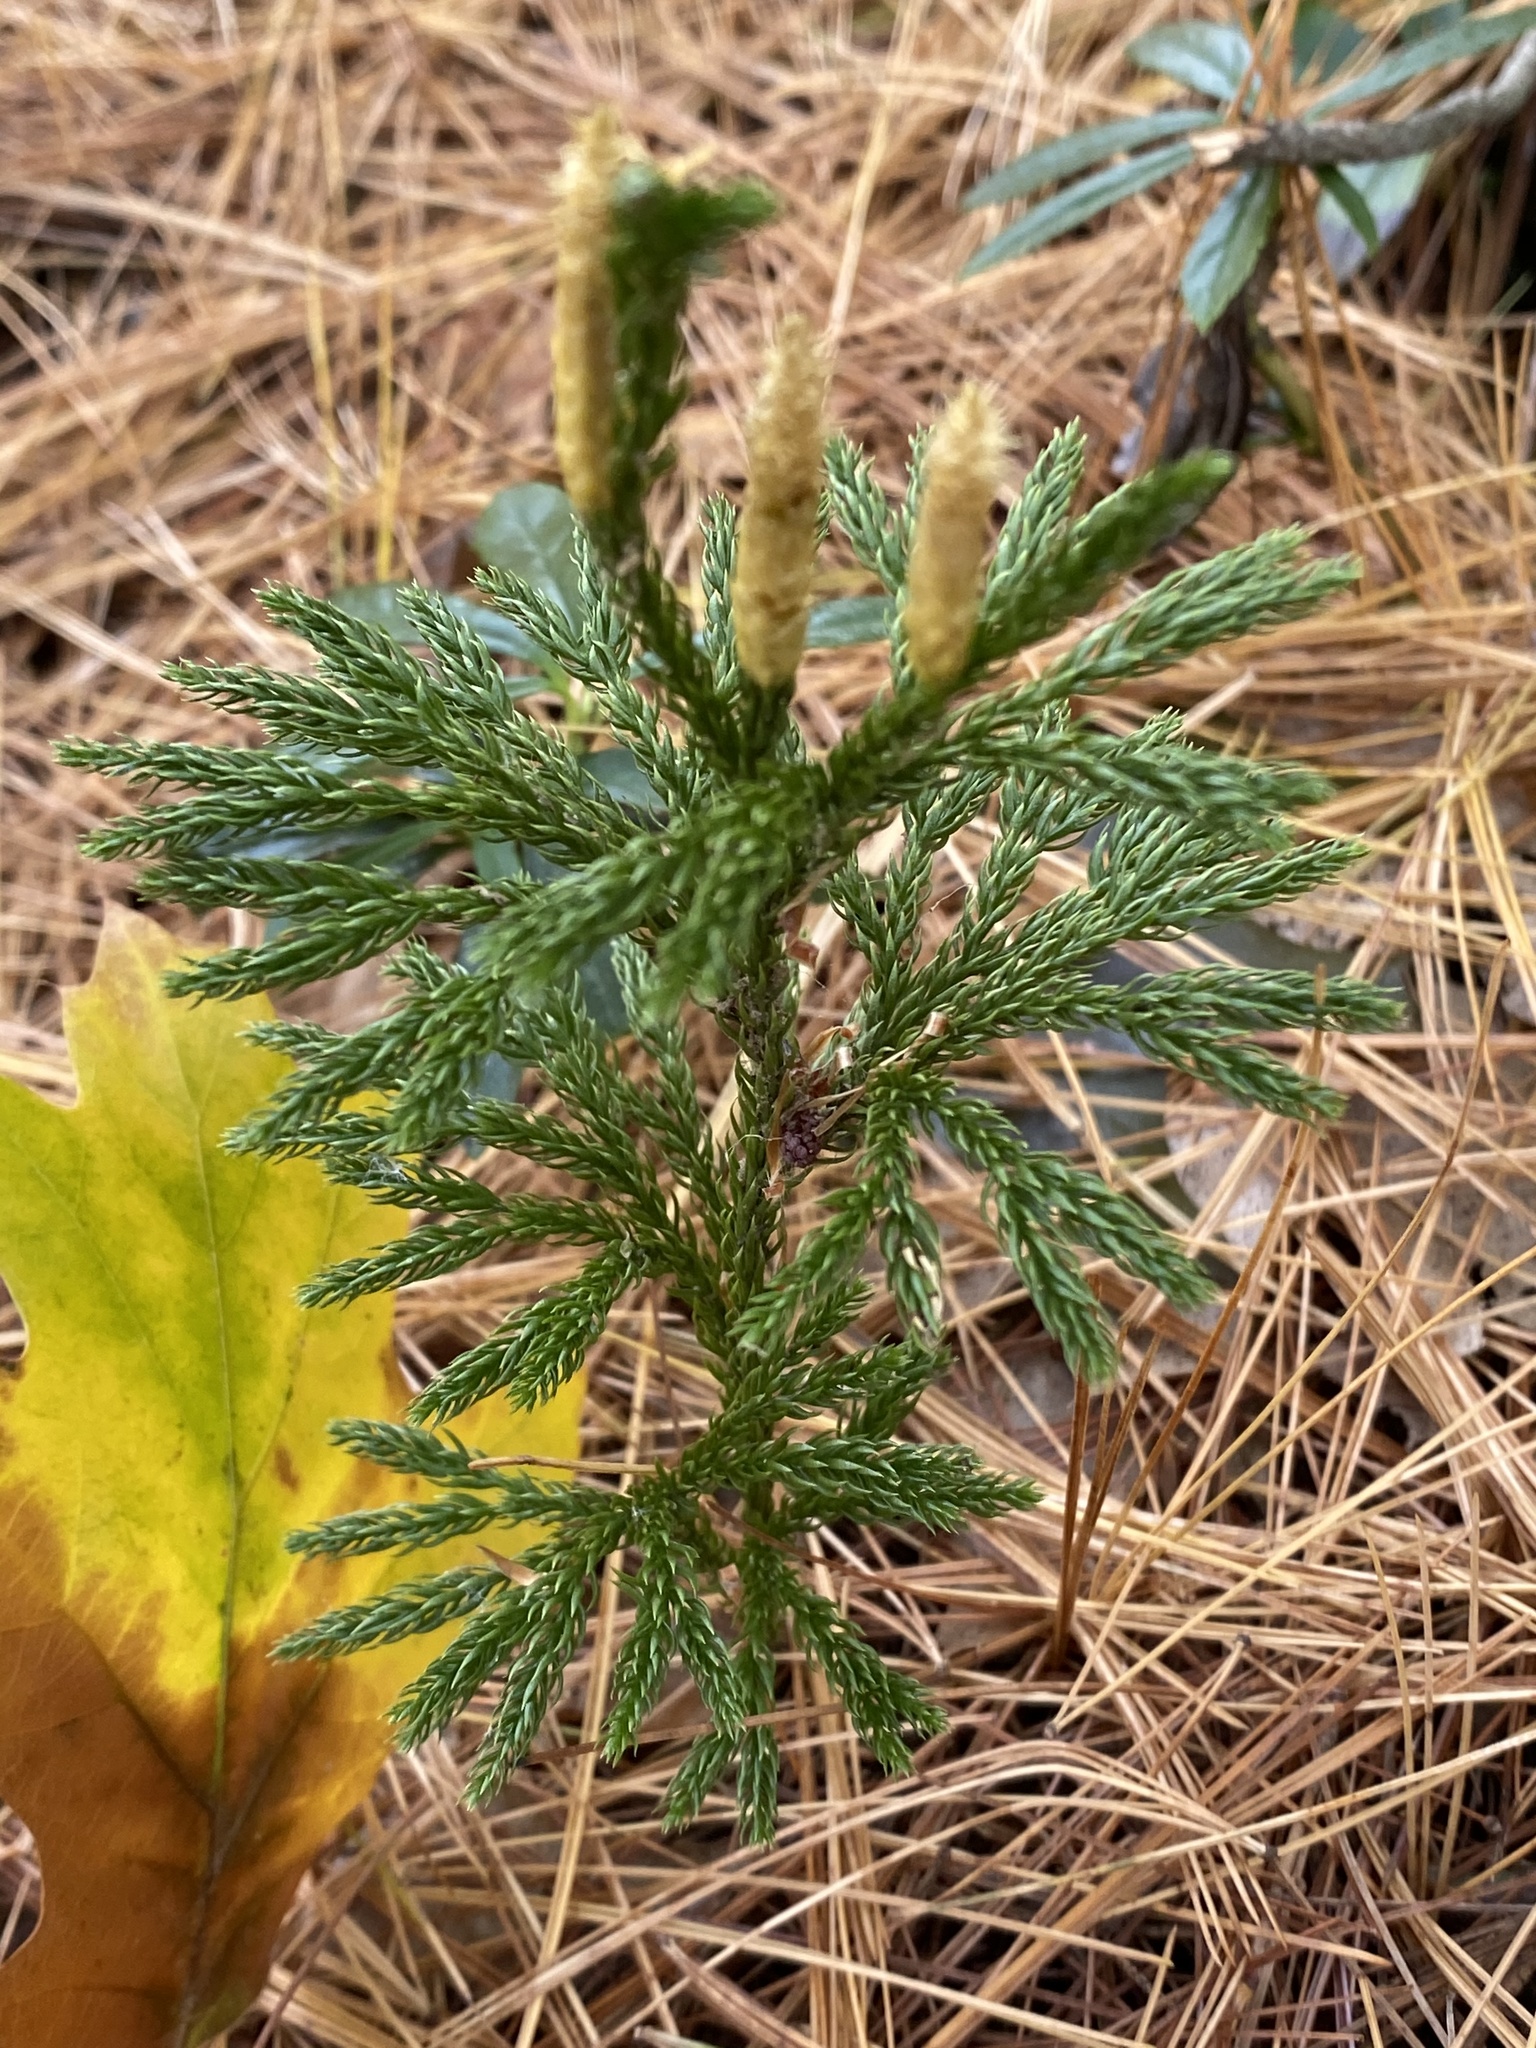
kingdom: Plantae
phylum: Tracheophyta
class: Lycopodiopsida
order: Lycopodiales
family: Lycopodiaceae
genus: Dendrolycopodium
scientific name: Dendrolycopodium obscurum
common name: Common ground-pine
